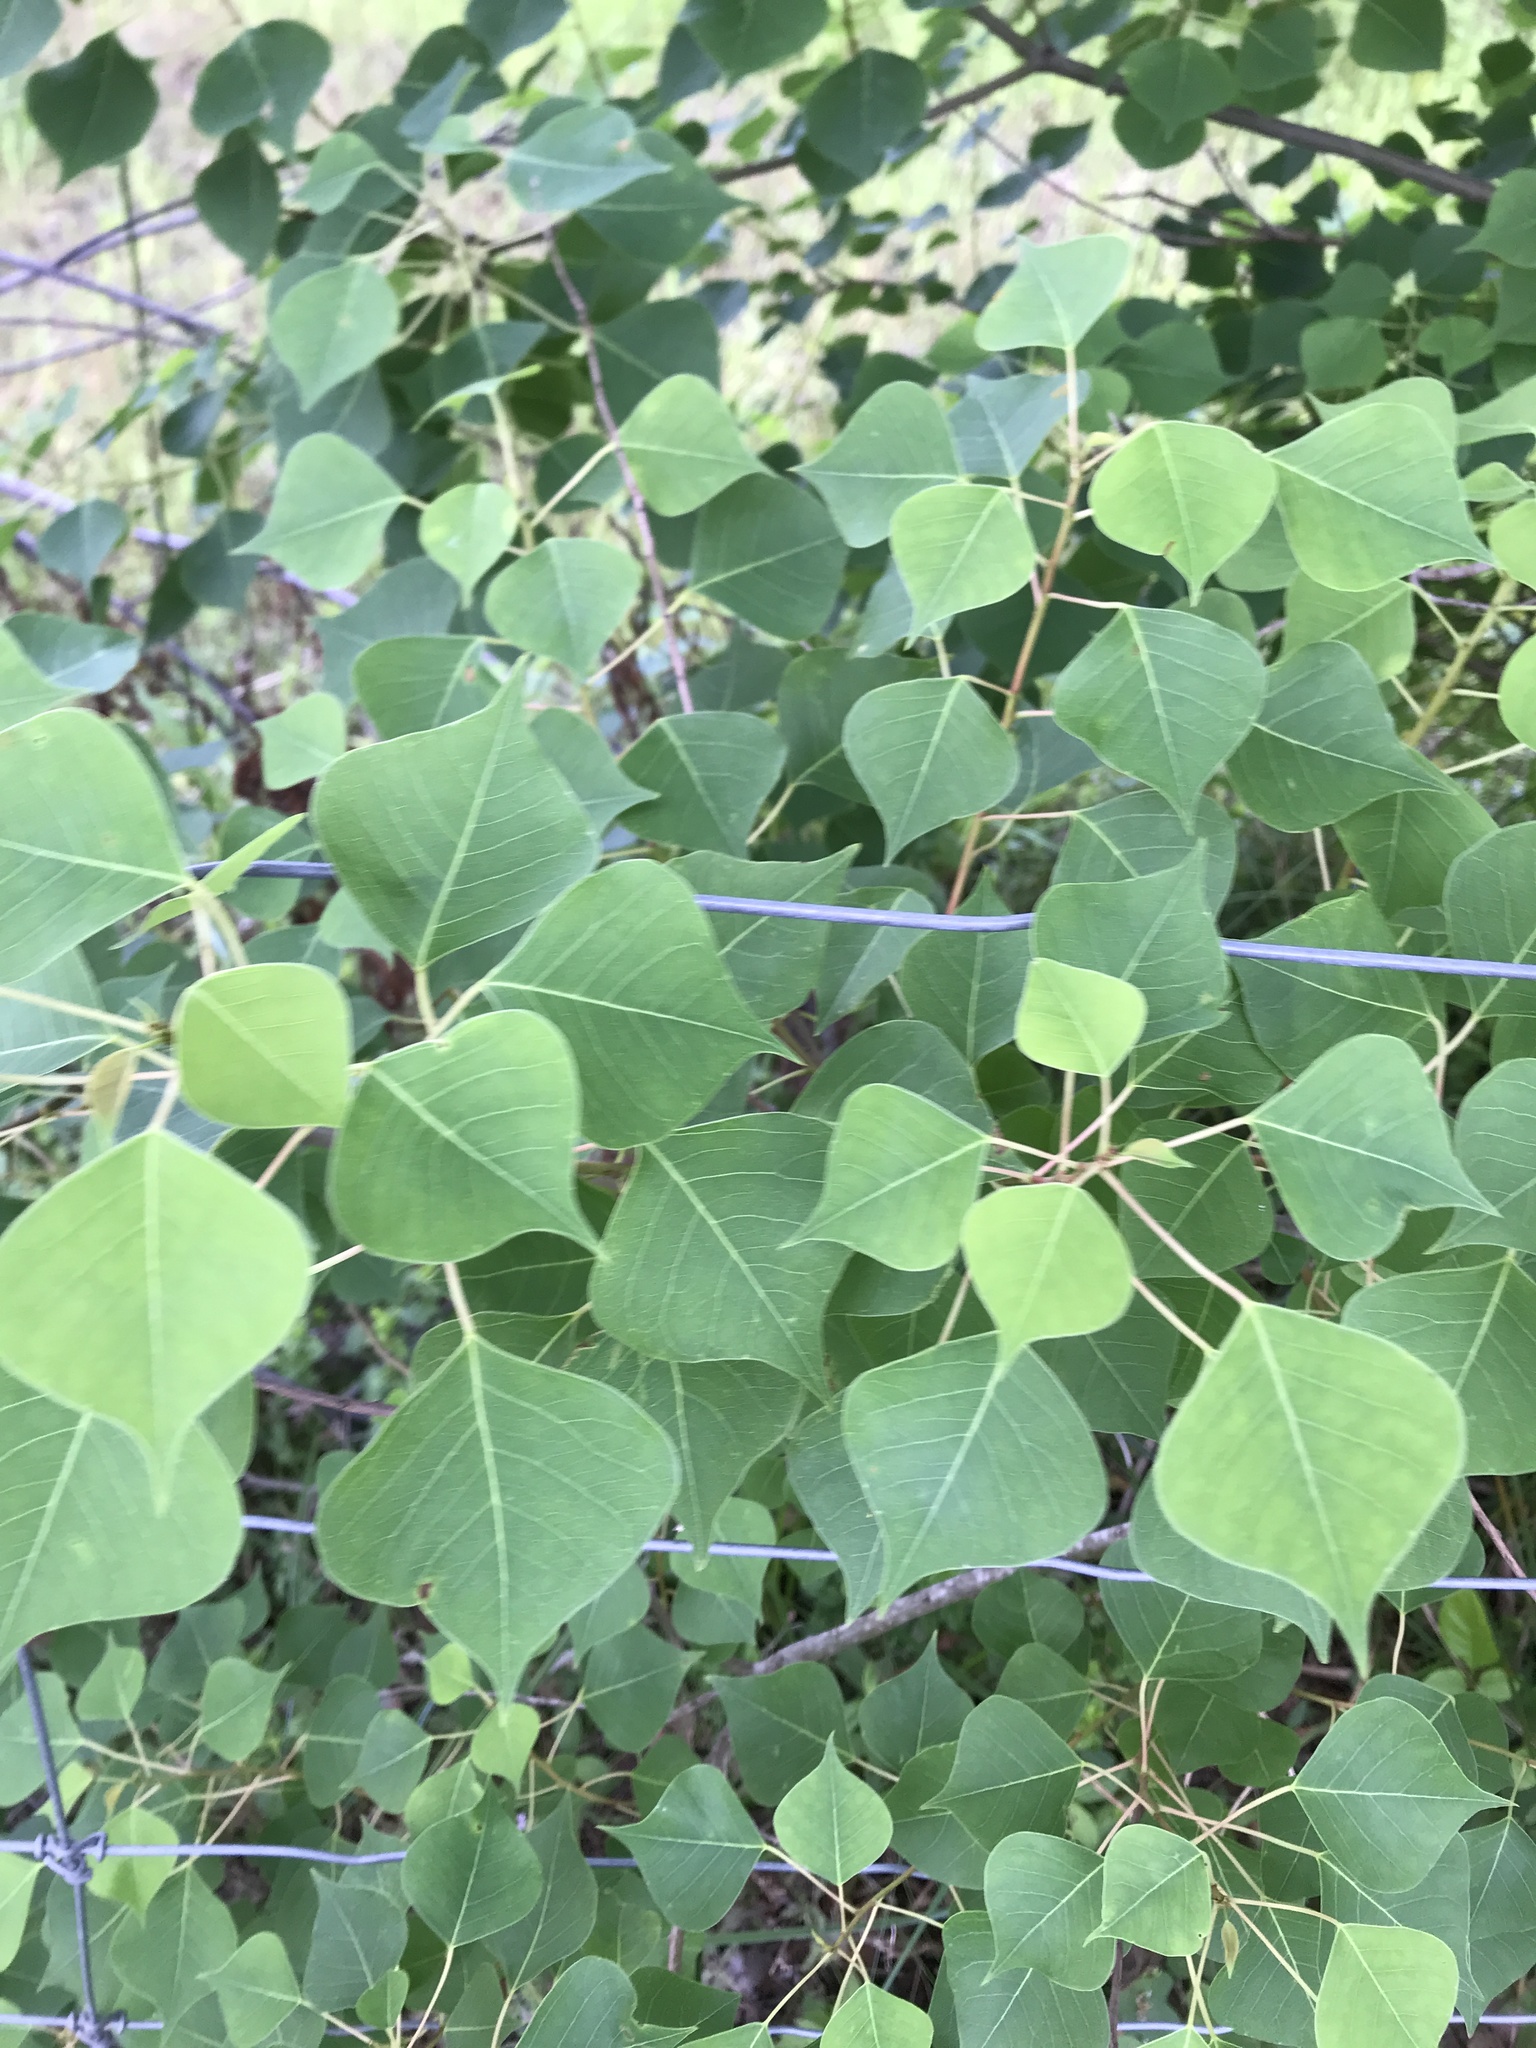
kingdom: Plantae
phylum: Tracheophyta
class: Magnoliopsida
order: Malpighiales
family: Euphorbiaceae
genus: Triadica
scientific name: Triadica sebifera
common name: Chinese tallow
